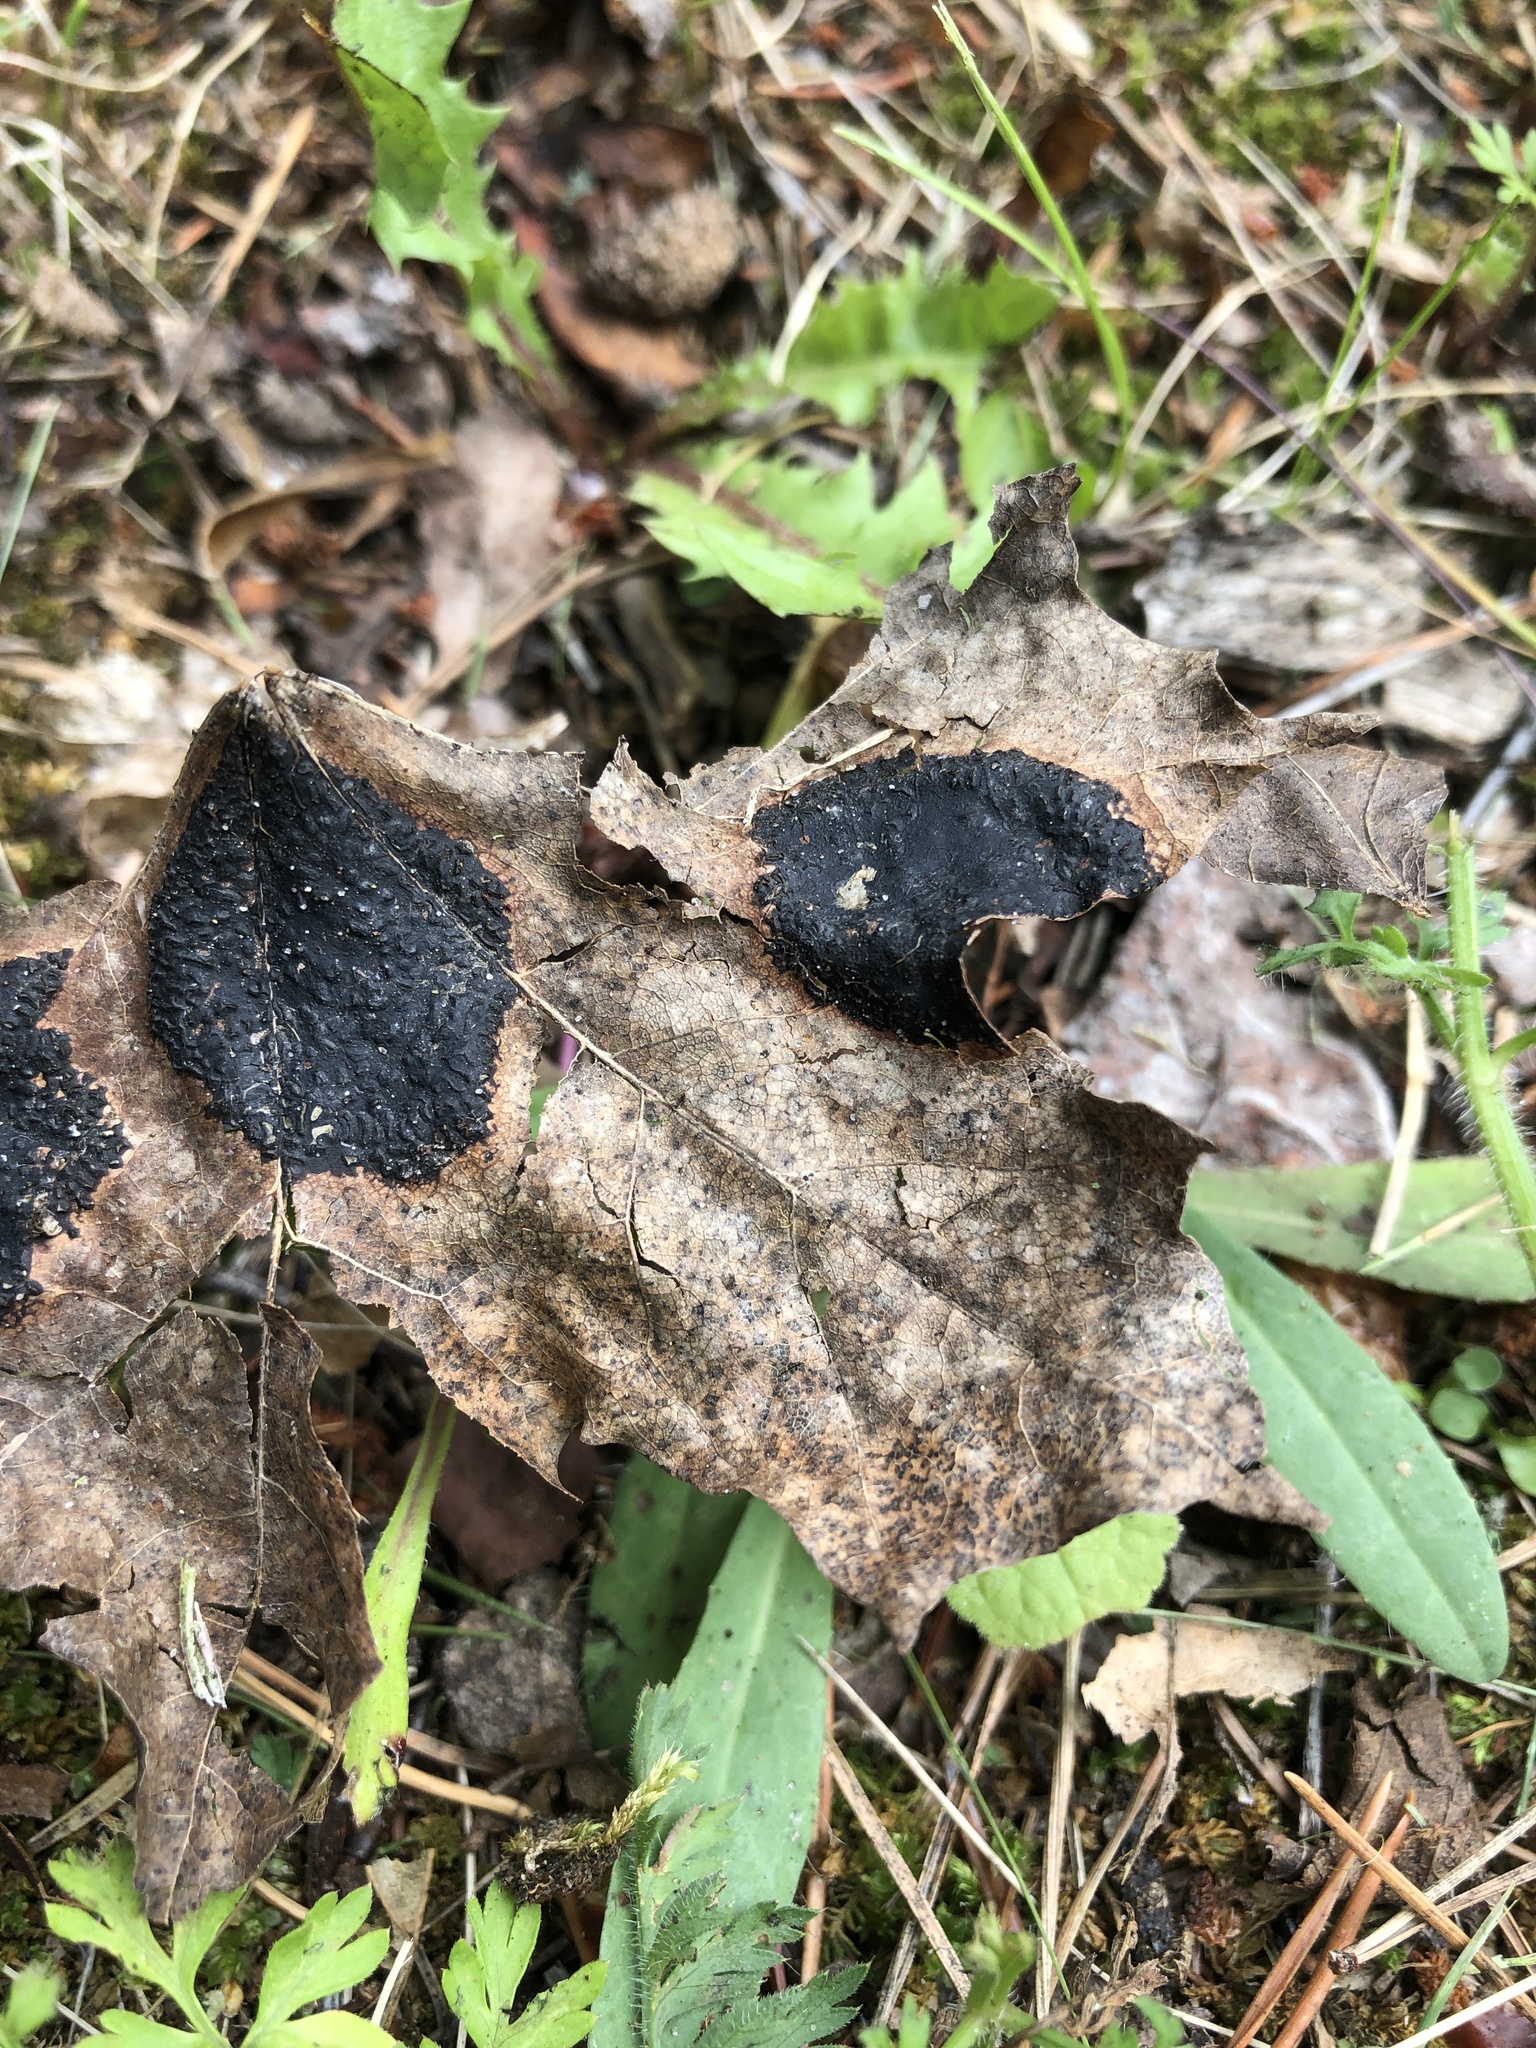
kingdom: Fungi
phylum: Ascomycota
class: Leotiomycetes
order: Rhytismatales
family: Rhytismataceae
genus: Rhytisma
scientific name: Rhytisma acerinum
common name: European tar spot
